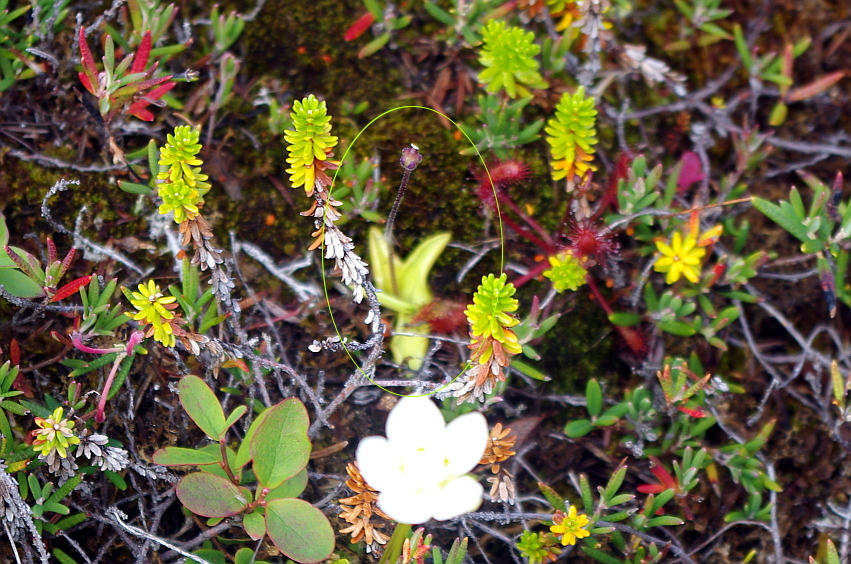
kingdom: Plantae
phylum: Tracheophyta
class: Magnoliopsida
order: Lamiales
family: Lentibulariaceae
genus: Pinguicula
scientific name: Pinguicula vulgaris
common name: Common butterwort
